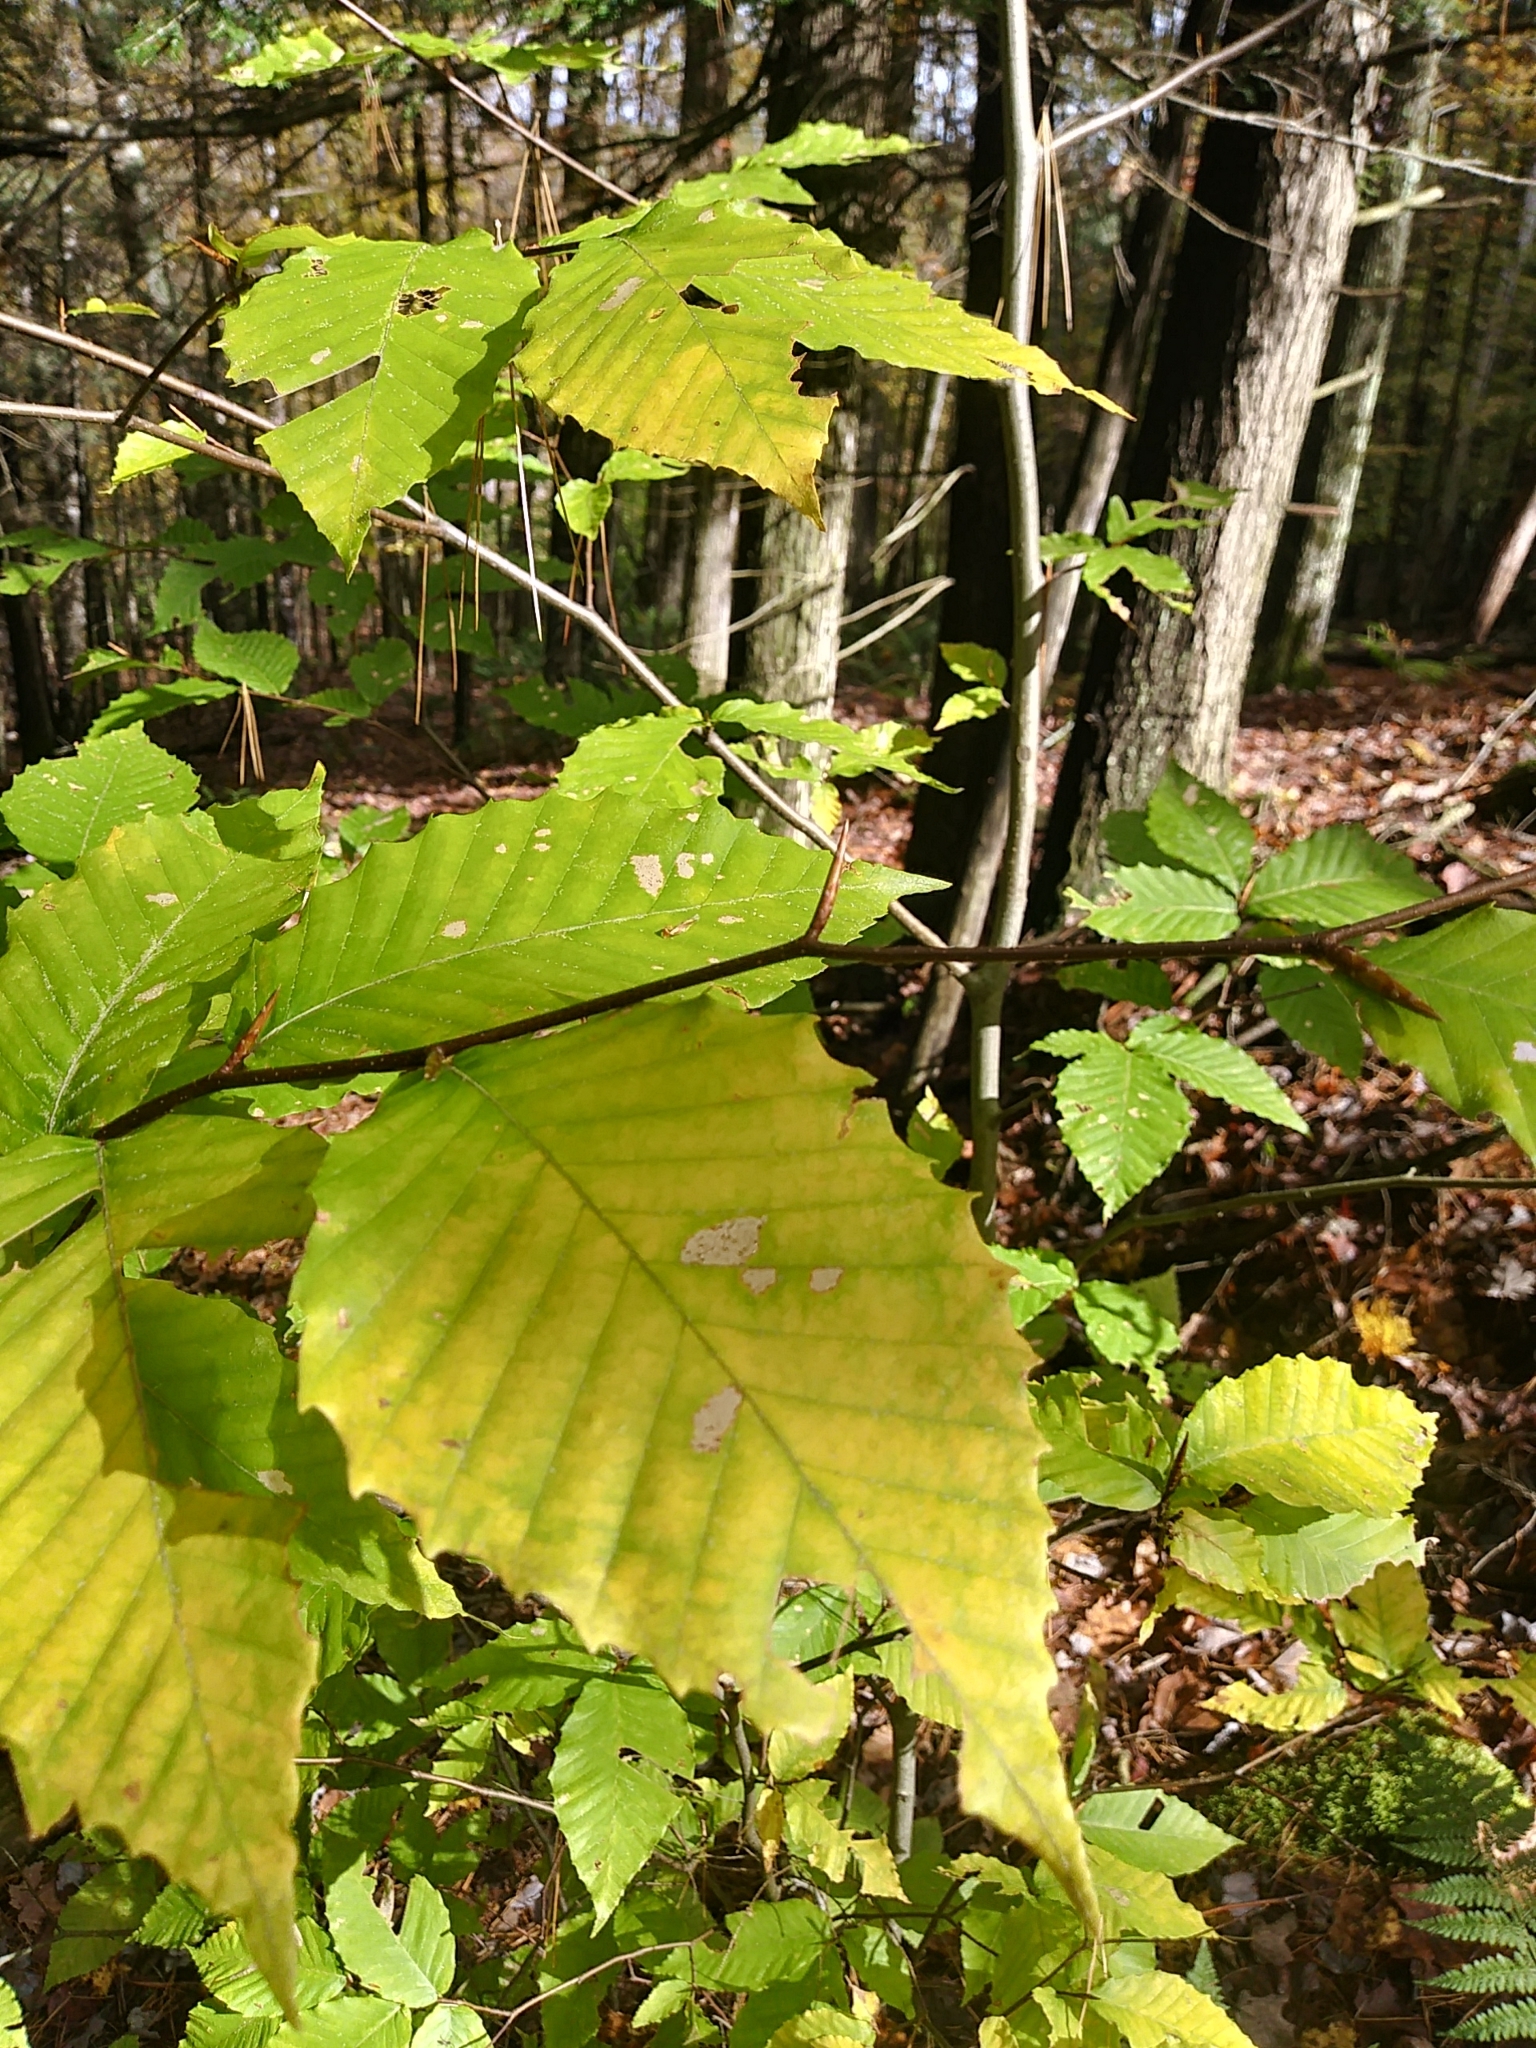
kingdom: Plantae
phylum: Tracheophyta
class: Magnoliopsida
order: Fagales
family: Fagaceae
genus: Fagus
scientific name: Fagus grandifolia
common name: American beech
